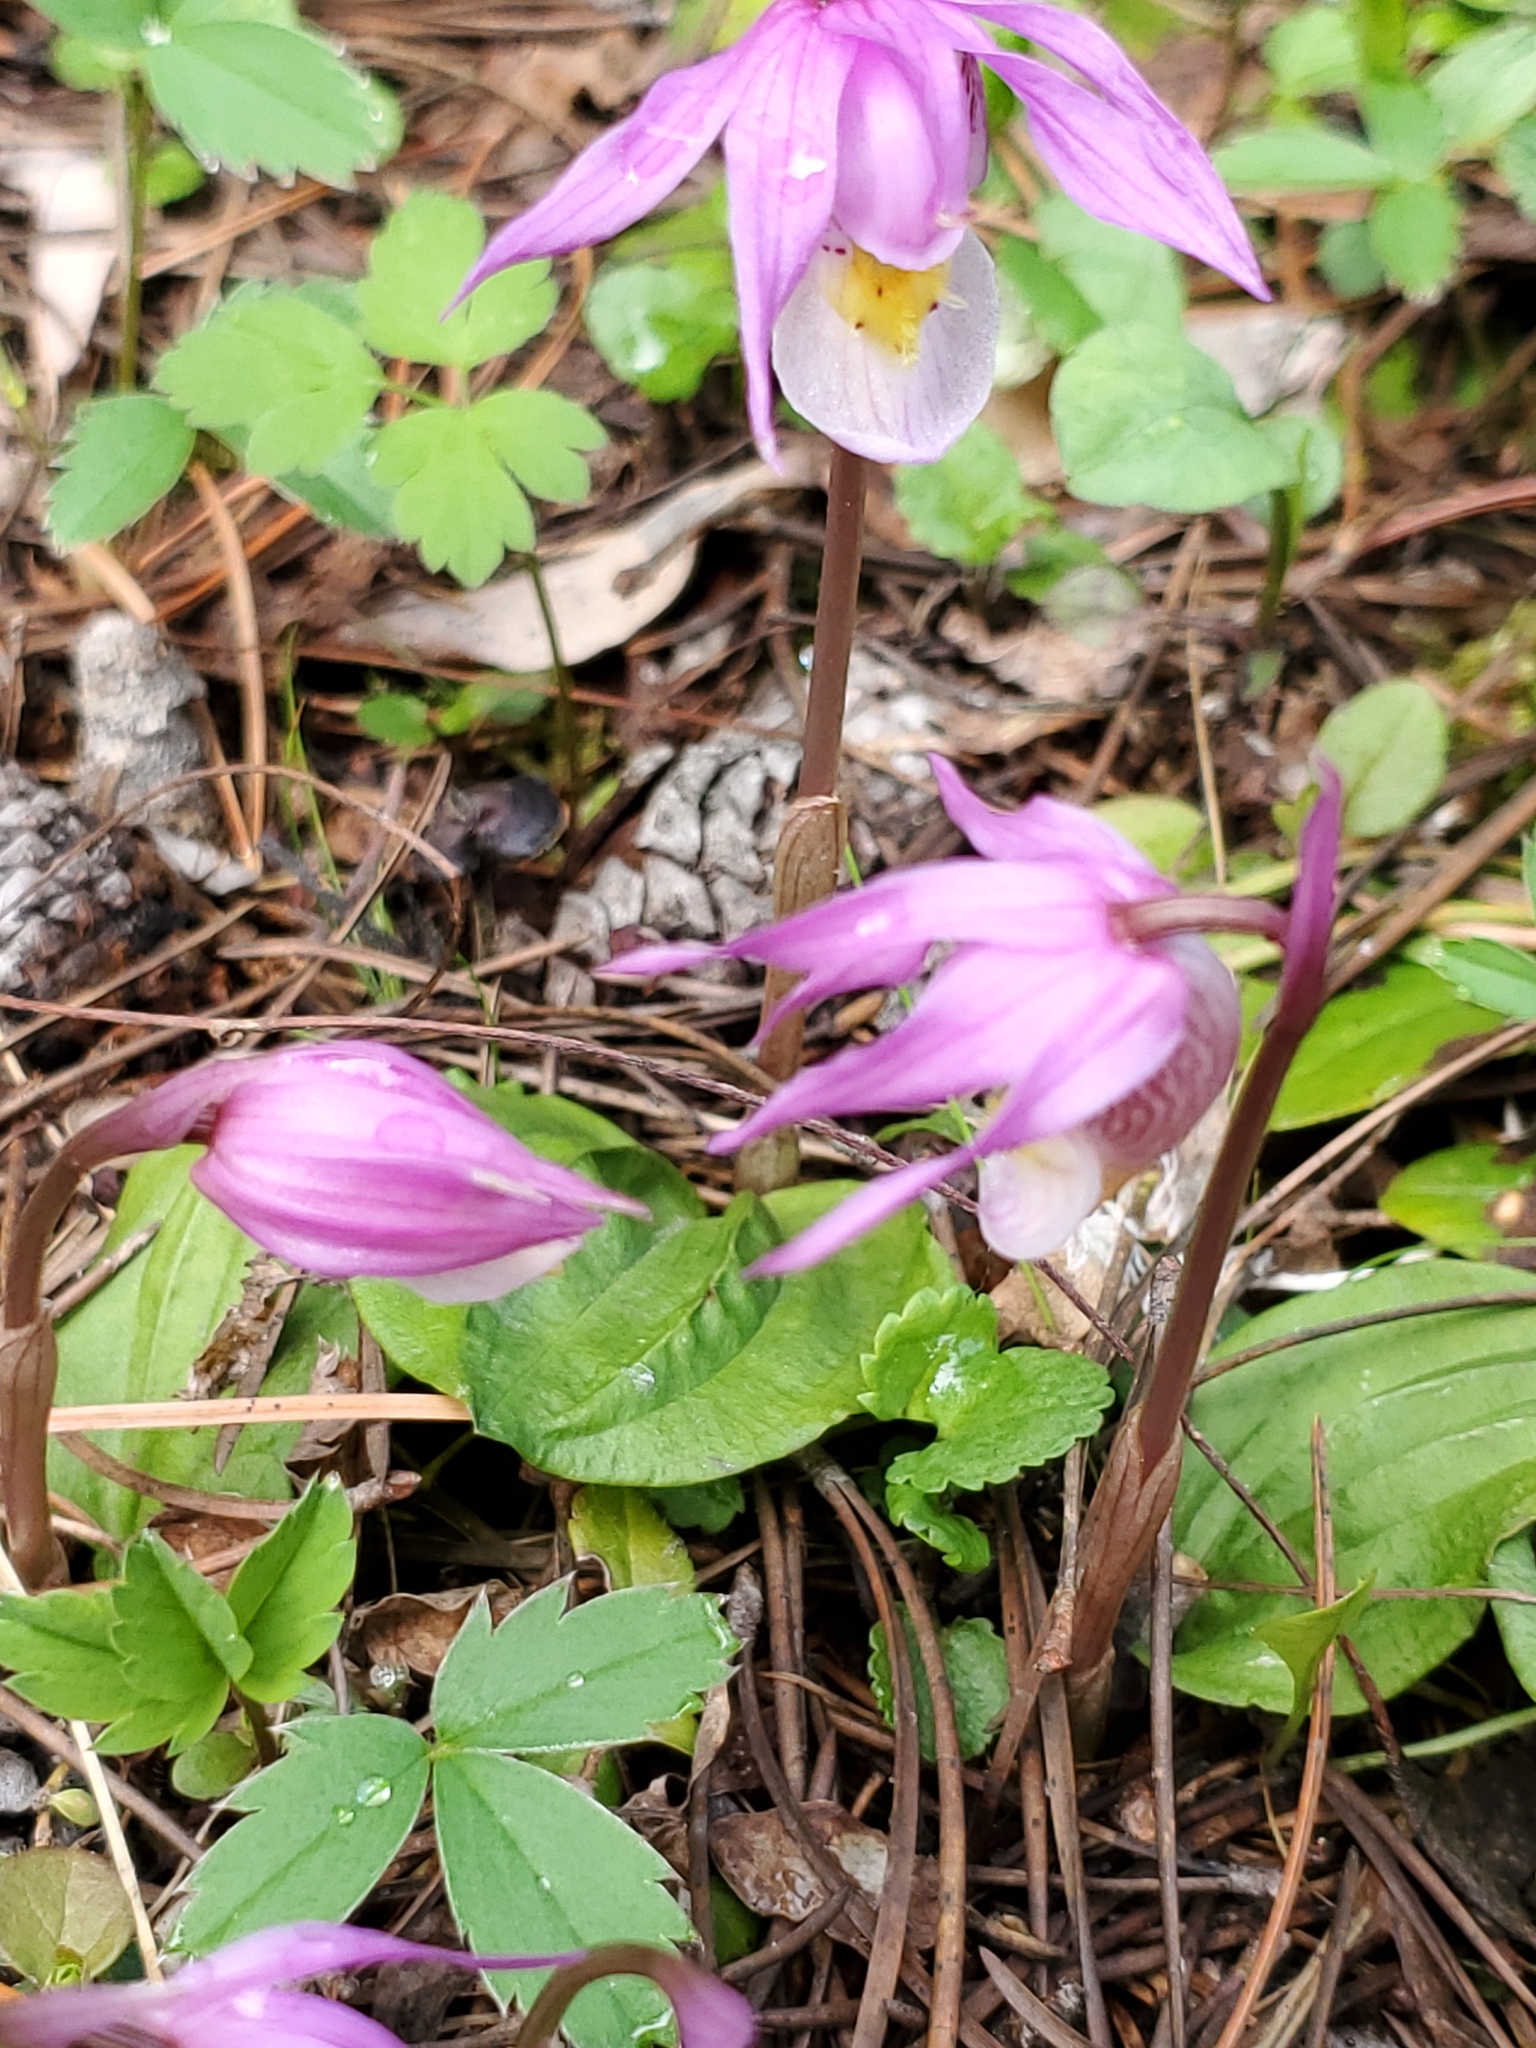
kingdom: Plantae
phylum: Tracheophyta
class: Liliopsida
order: Asparagales
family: Orchidaceae
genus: Calypso
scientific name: Calypso bulbosa
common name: Calypso
